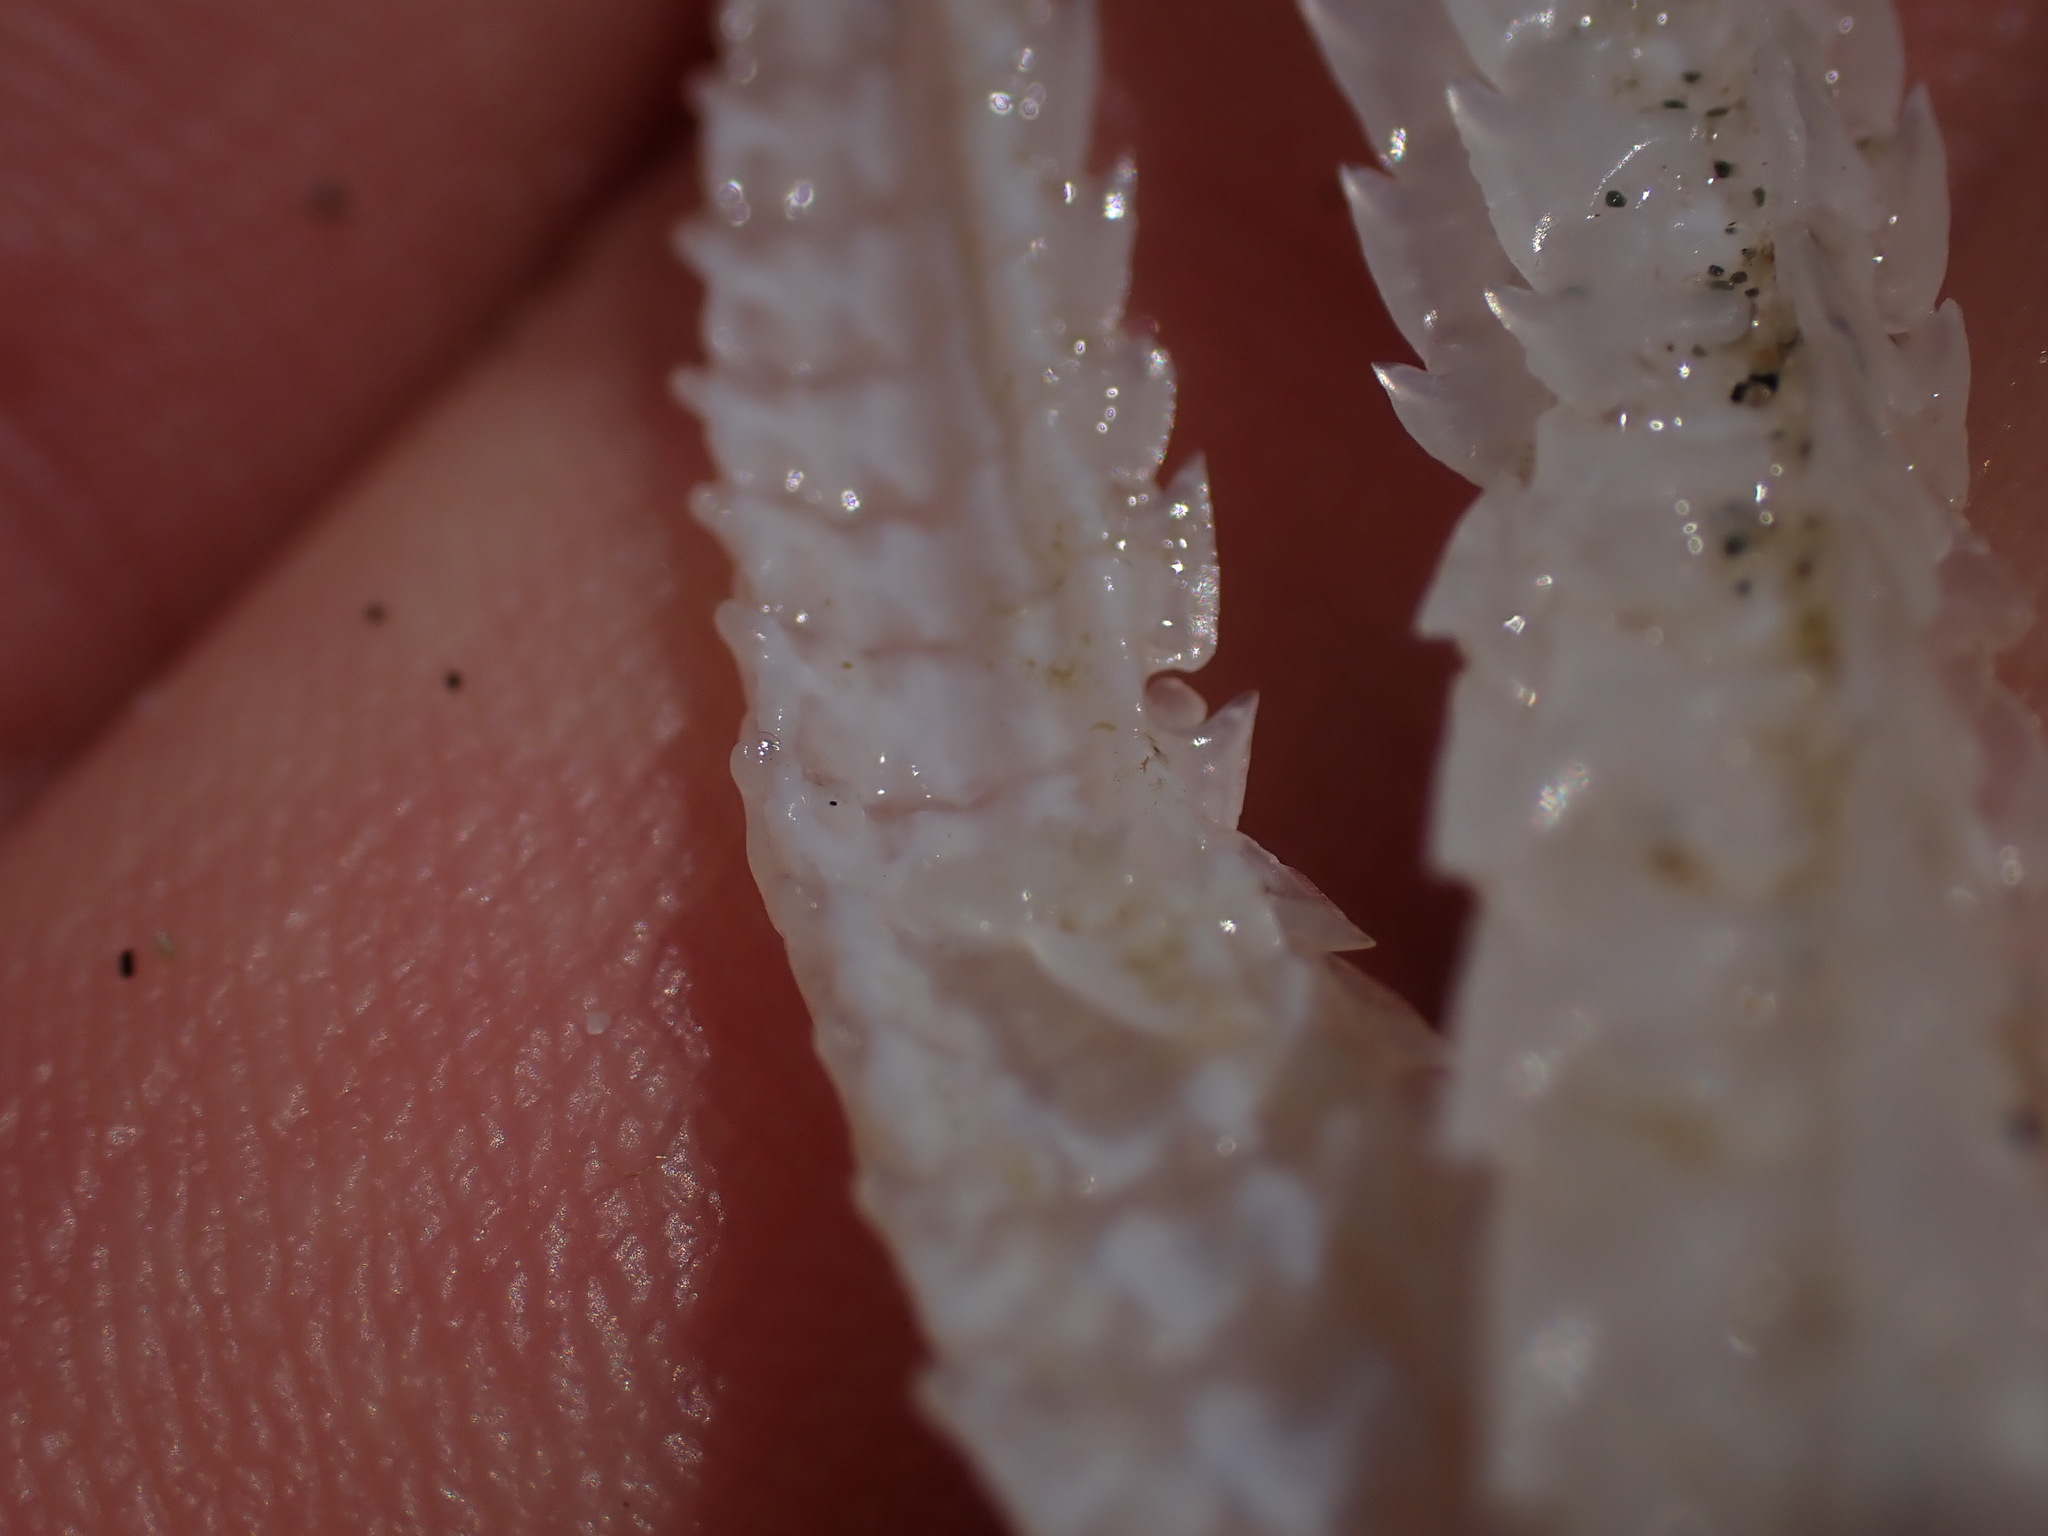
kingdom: Animalia
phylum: Chordata
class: Elasmobranchii
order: Squaliformes
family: Squalidae
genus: Squalus
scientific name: Squalus suckleyi
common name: Spiny dogfish
